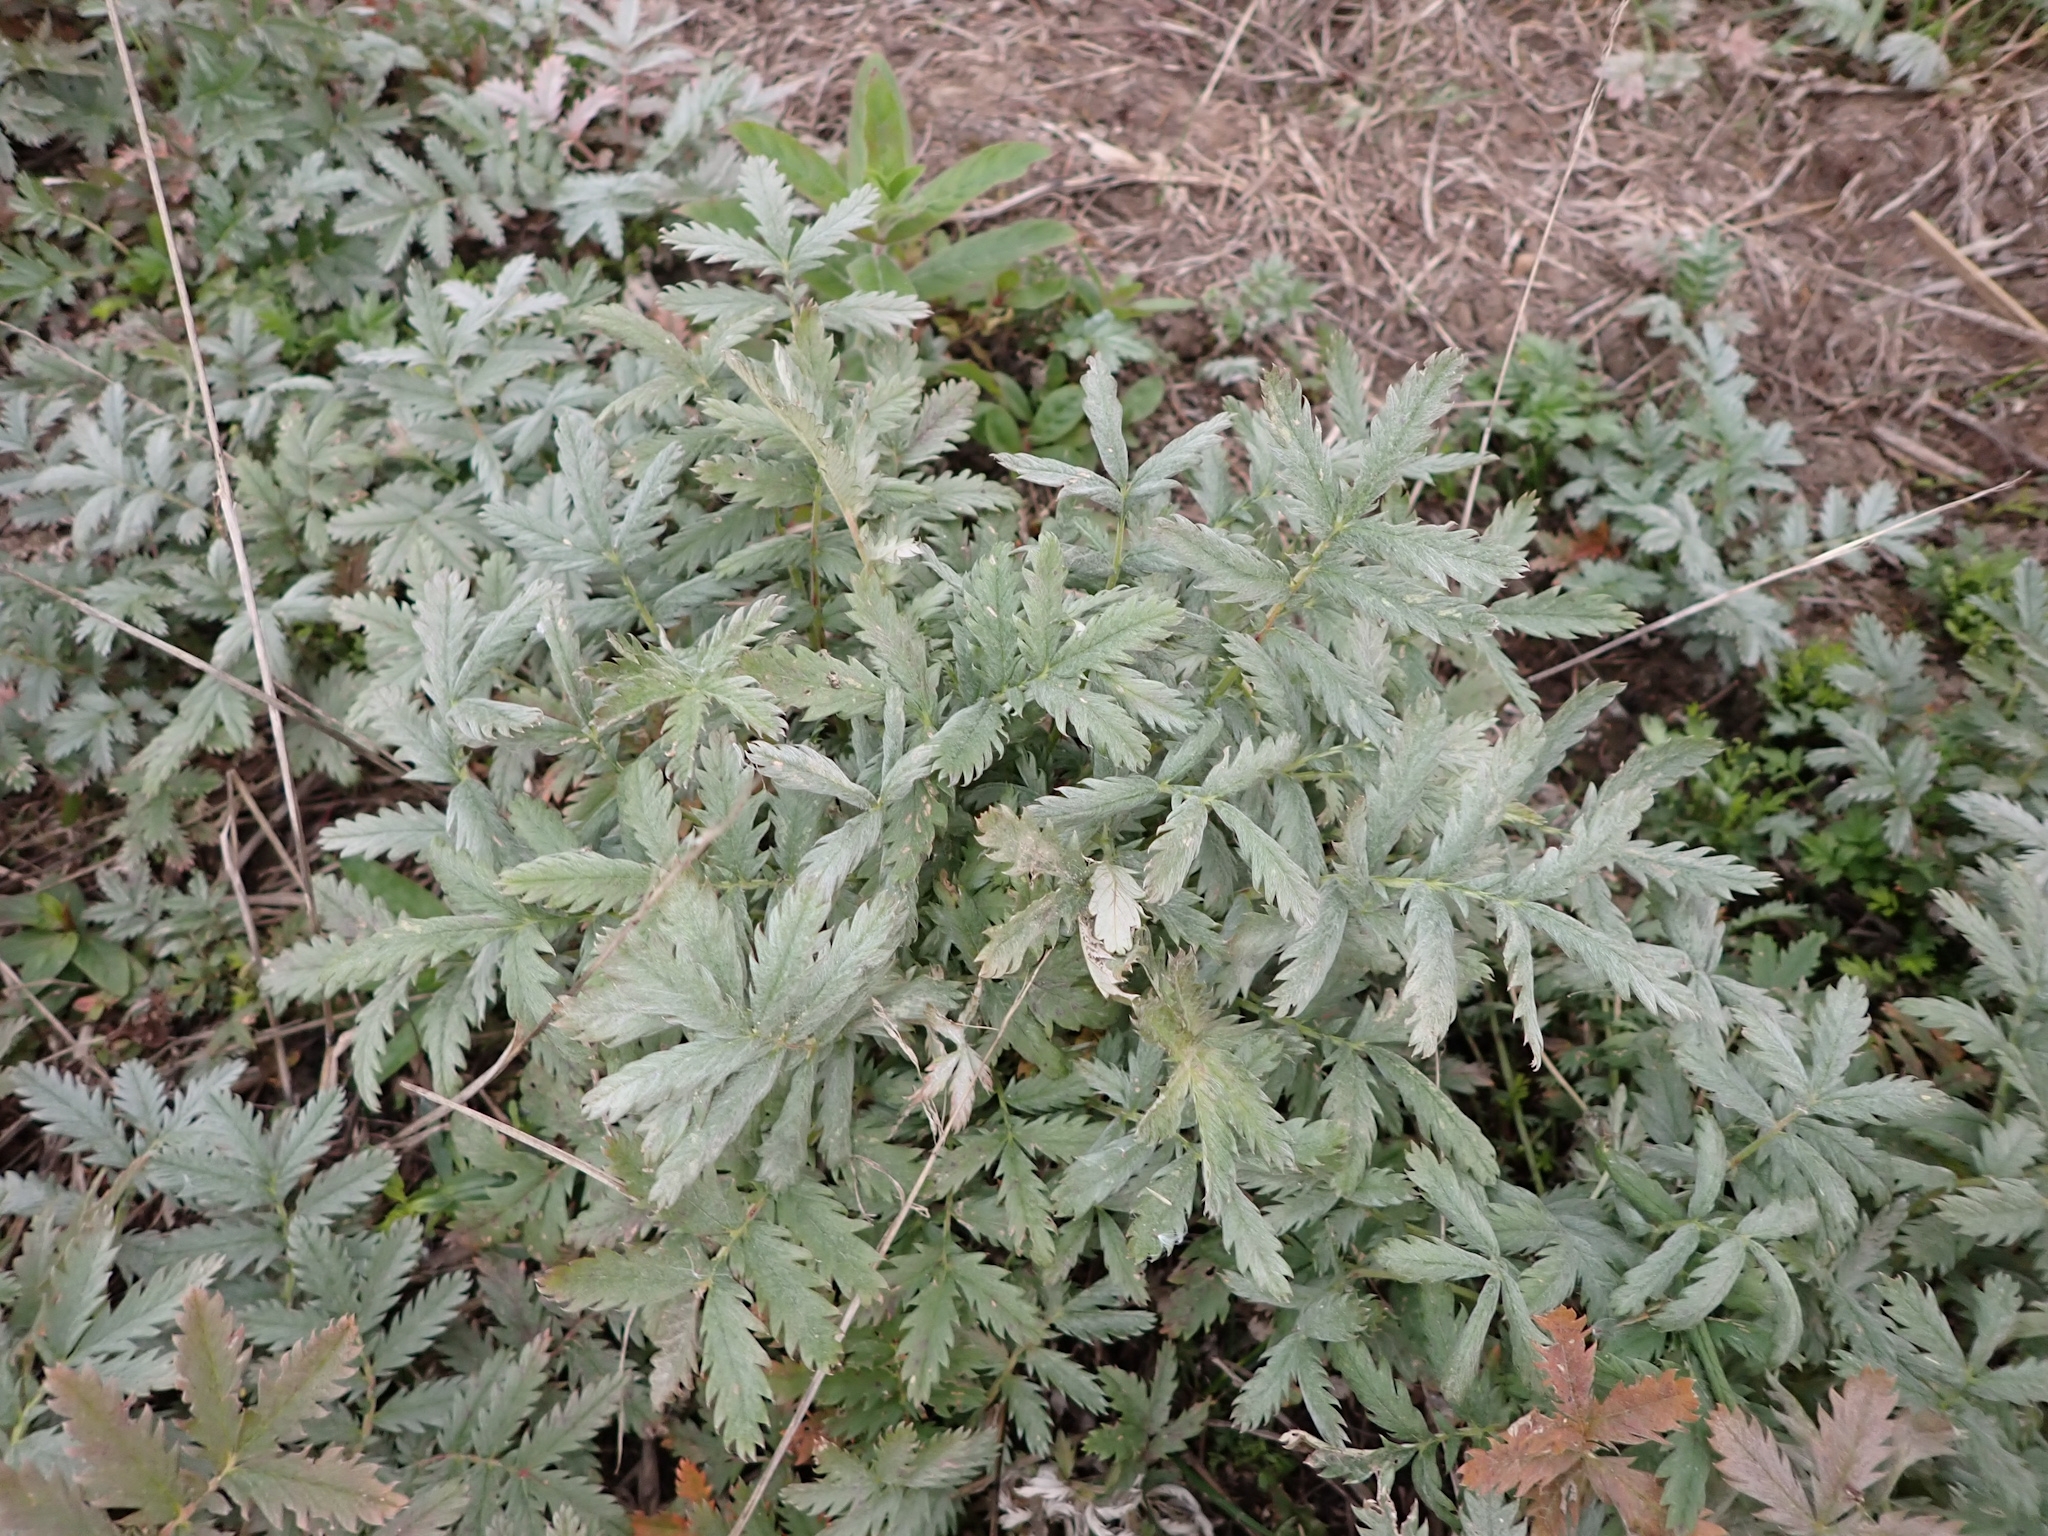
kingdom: Plantae
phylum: Tracheophyta
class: Magnoliopsida
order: Rosales
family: Rosaceae
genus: Argentina
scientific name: Argentina anserina
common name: Common silverweed
